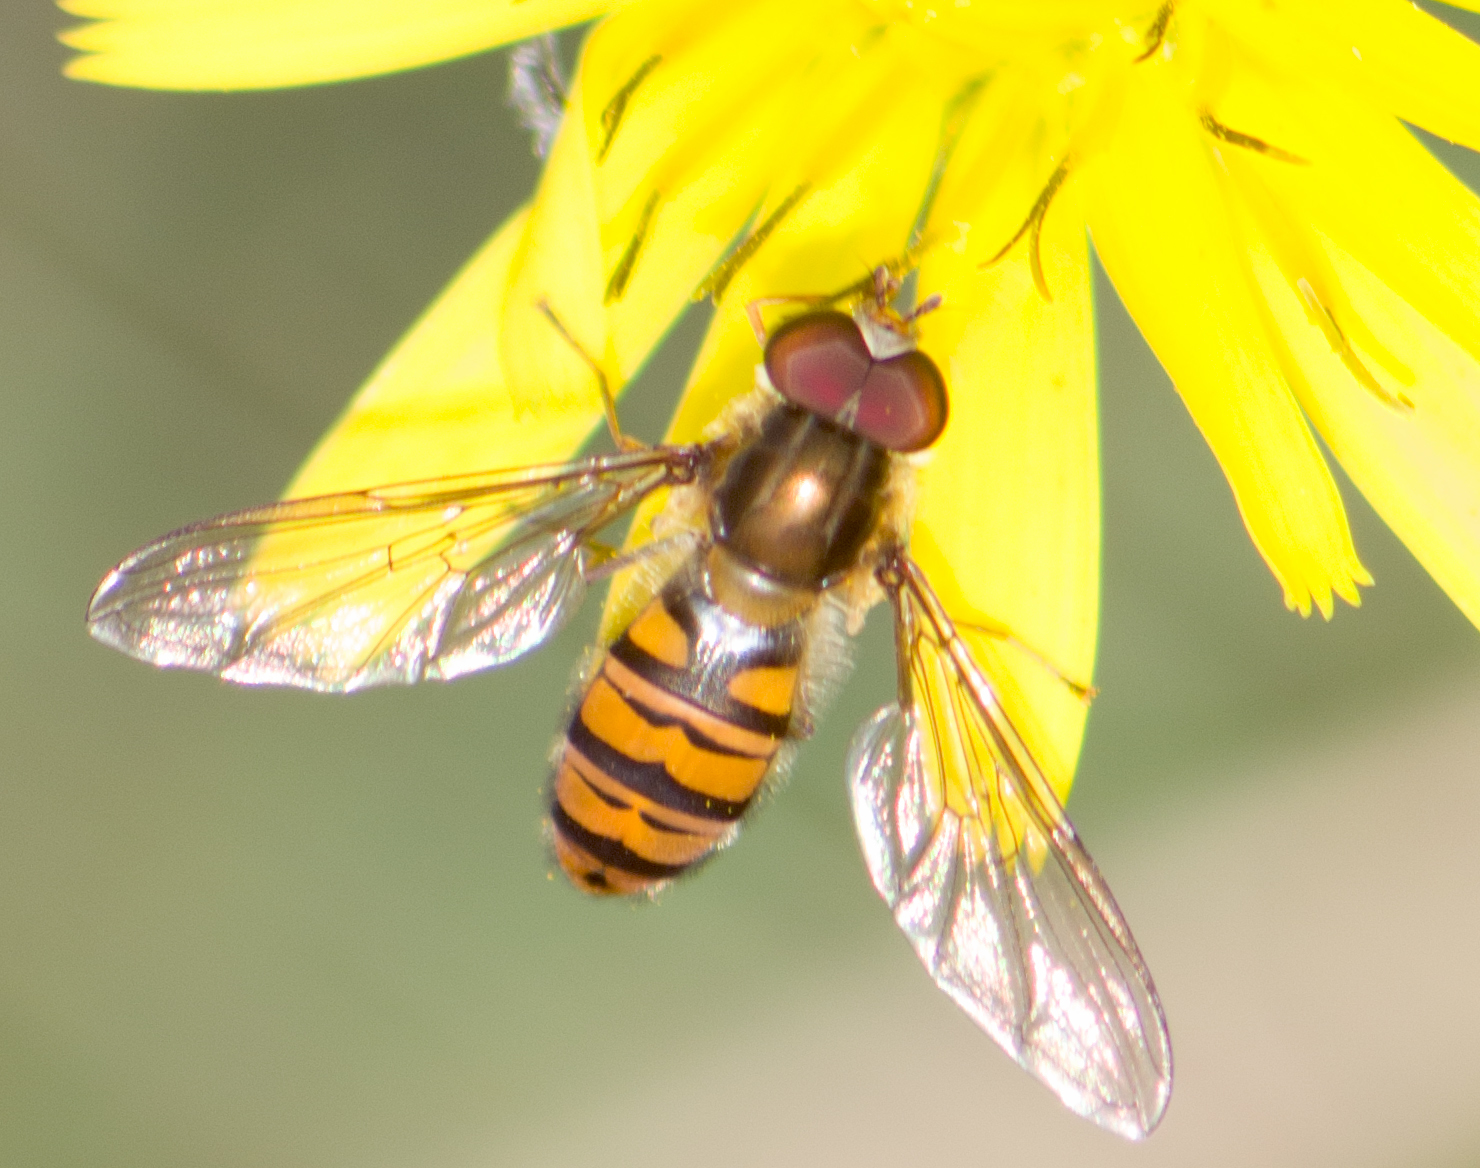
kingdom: Animalia
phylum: Arthropoda
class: Insecta
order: Diptera
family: Syrphidae
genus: Episyrphus
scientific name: Episyrphus balteatus
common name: Marmalade hoverfly
